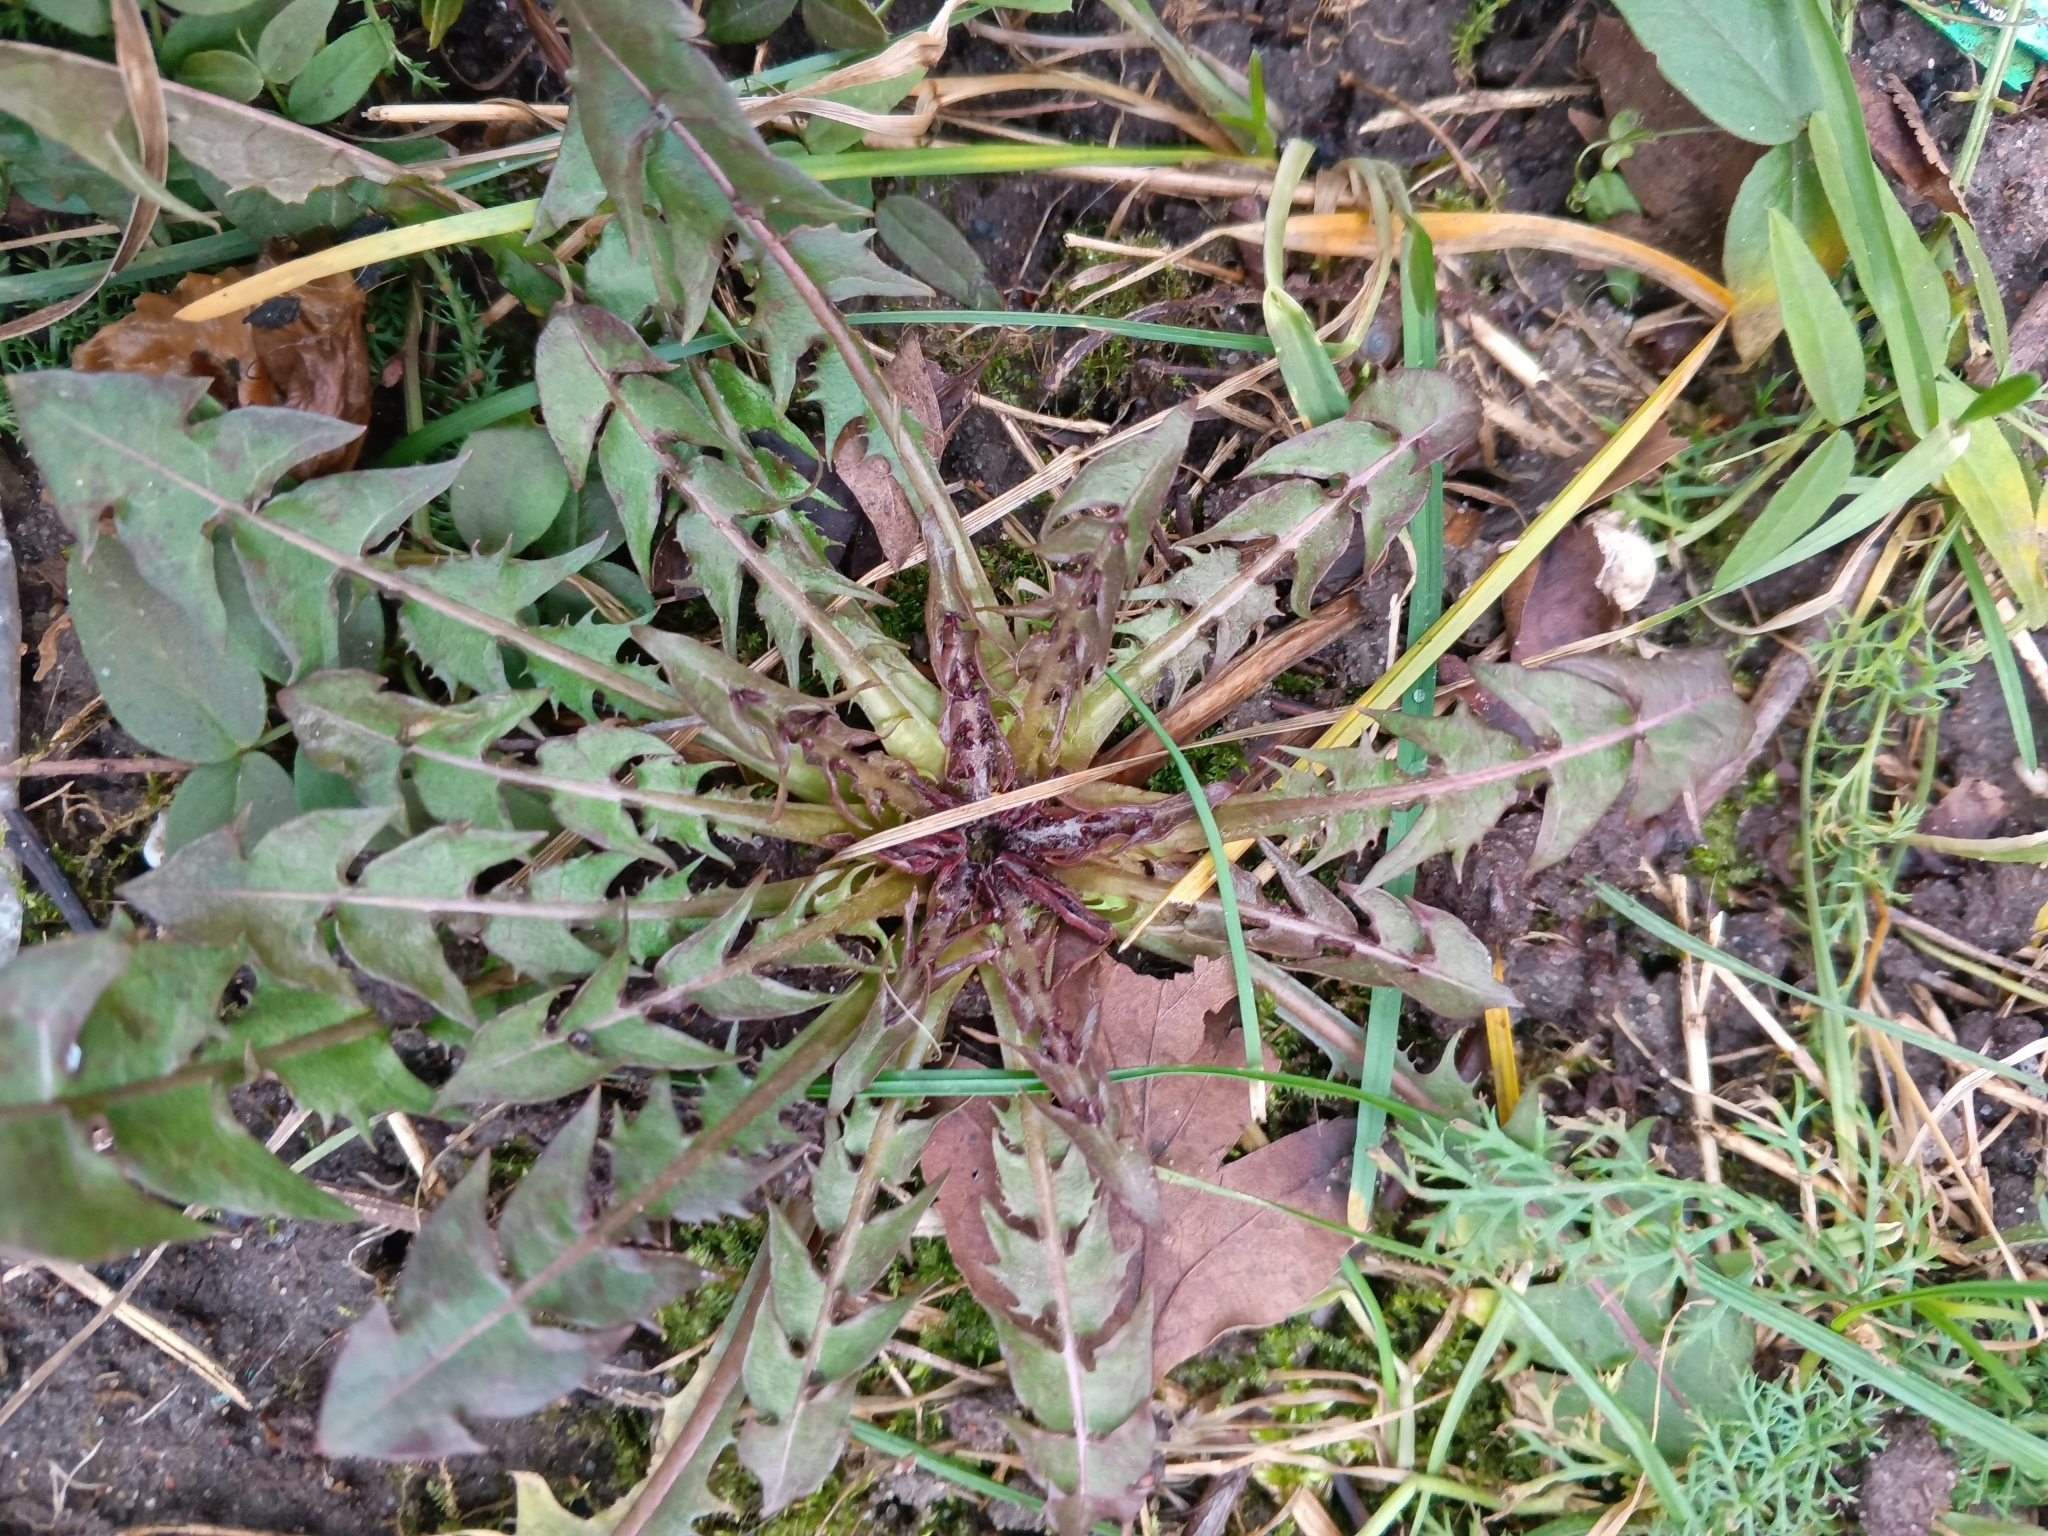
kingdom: Plantae
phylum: Tracheophyta
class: Magnoliopsida
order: Asterales
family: Asteraceae
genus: Taraxacum
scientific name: Taraxacum officinale
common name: Common dandelion
